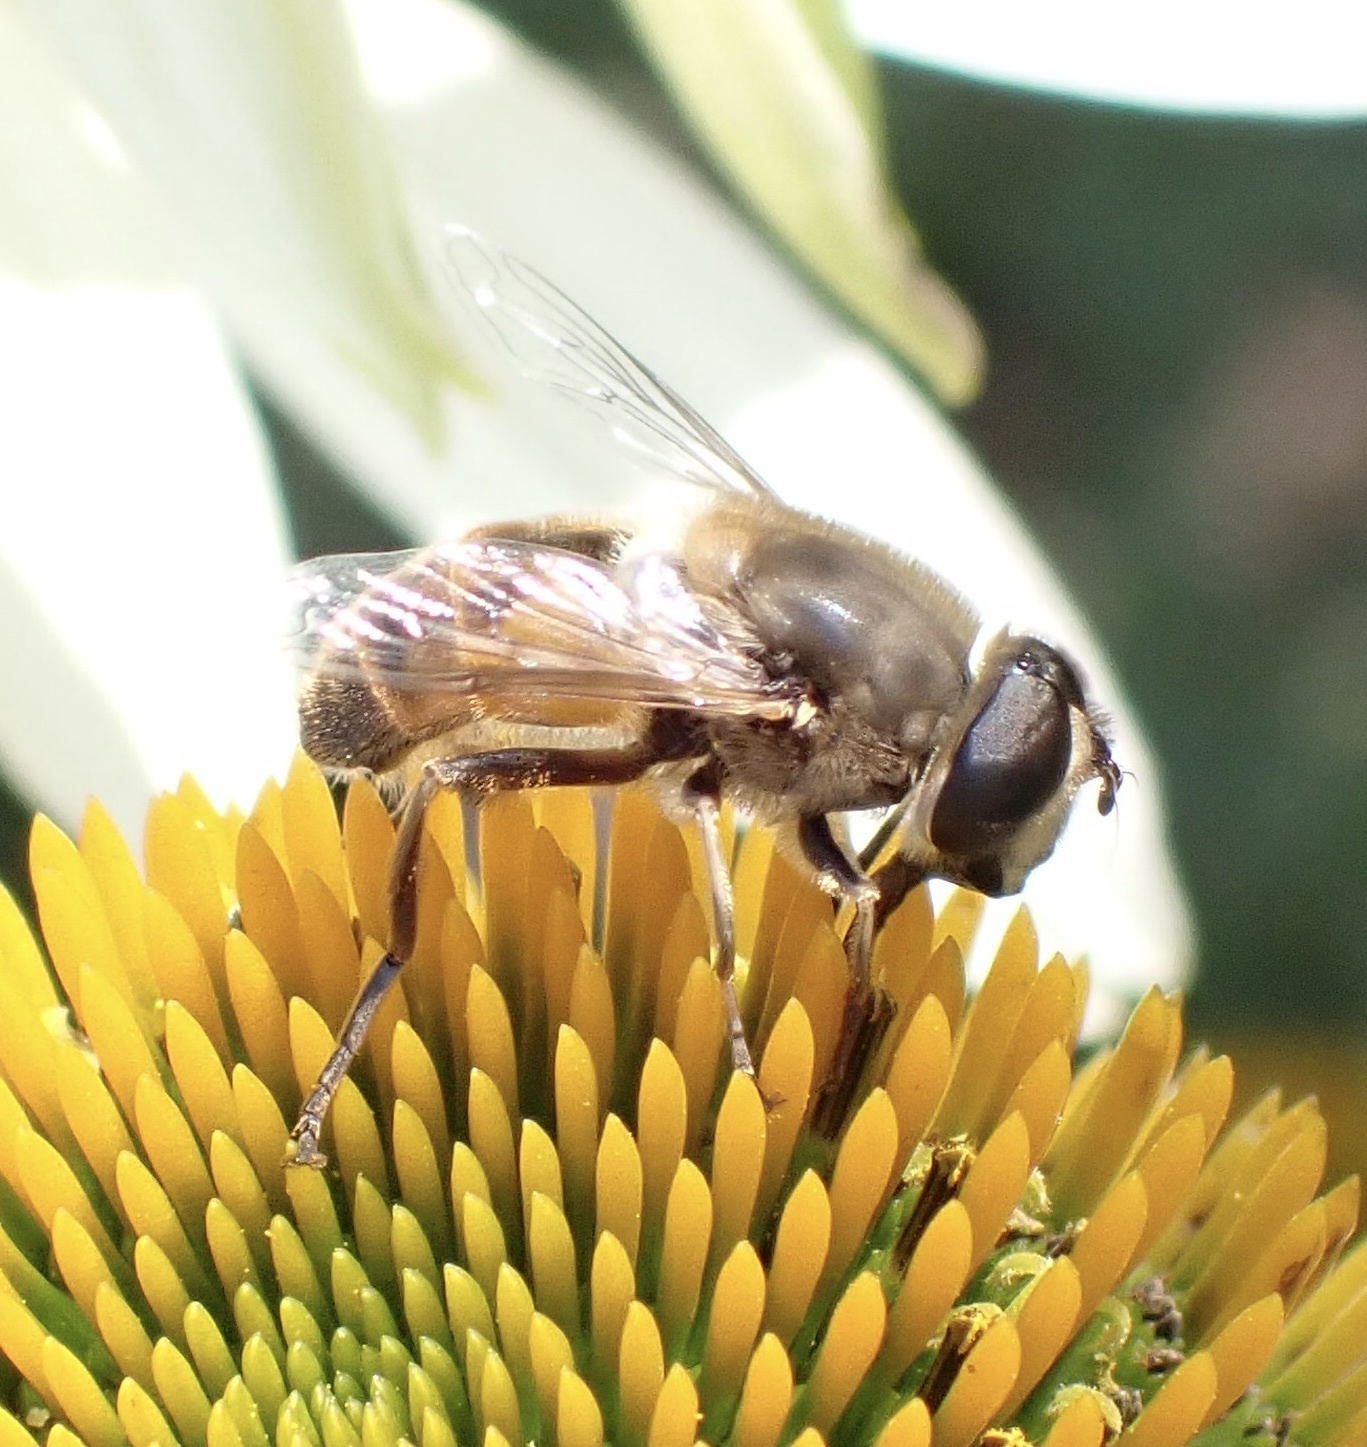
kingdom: Animalia
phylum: Arthropoda
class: Insecta
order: Diptera
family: Syrphidae
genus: Eristalis
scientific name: Eristalis tenax
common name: Drone fly
